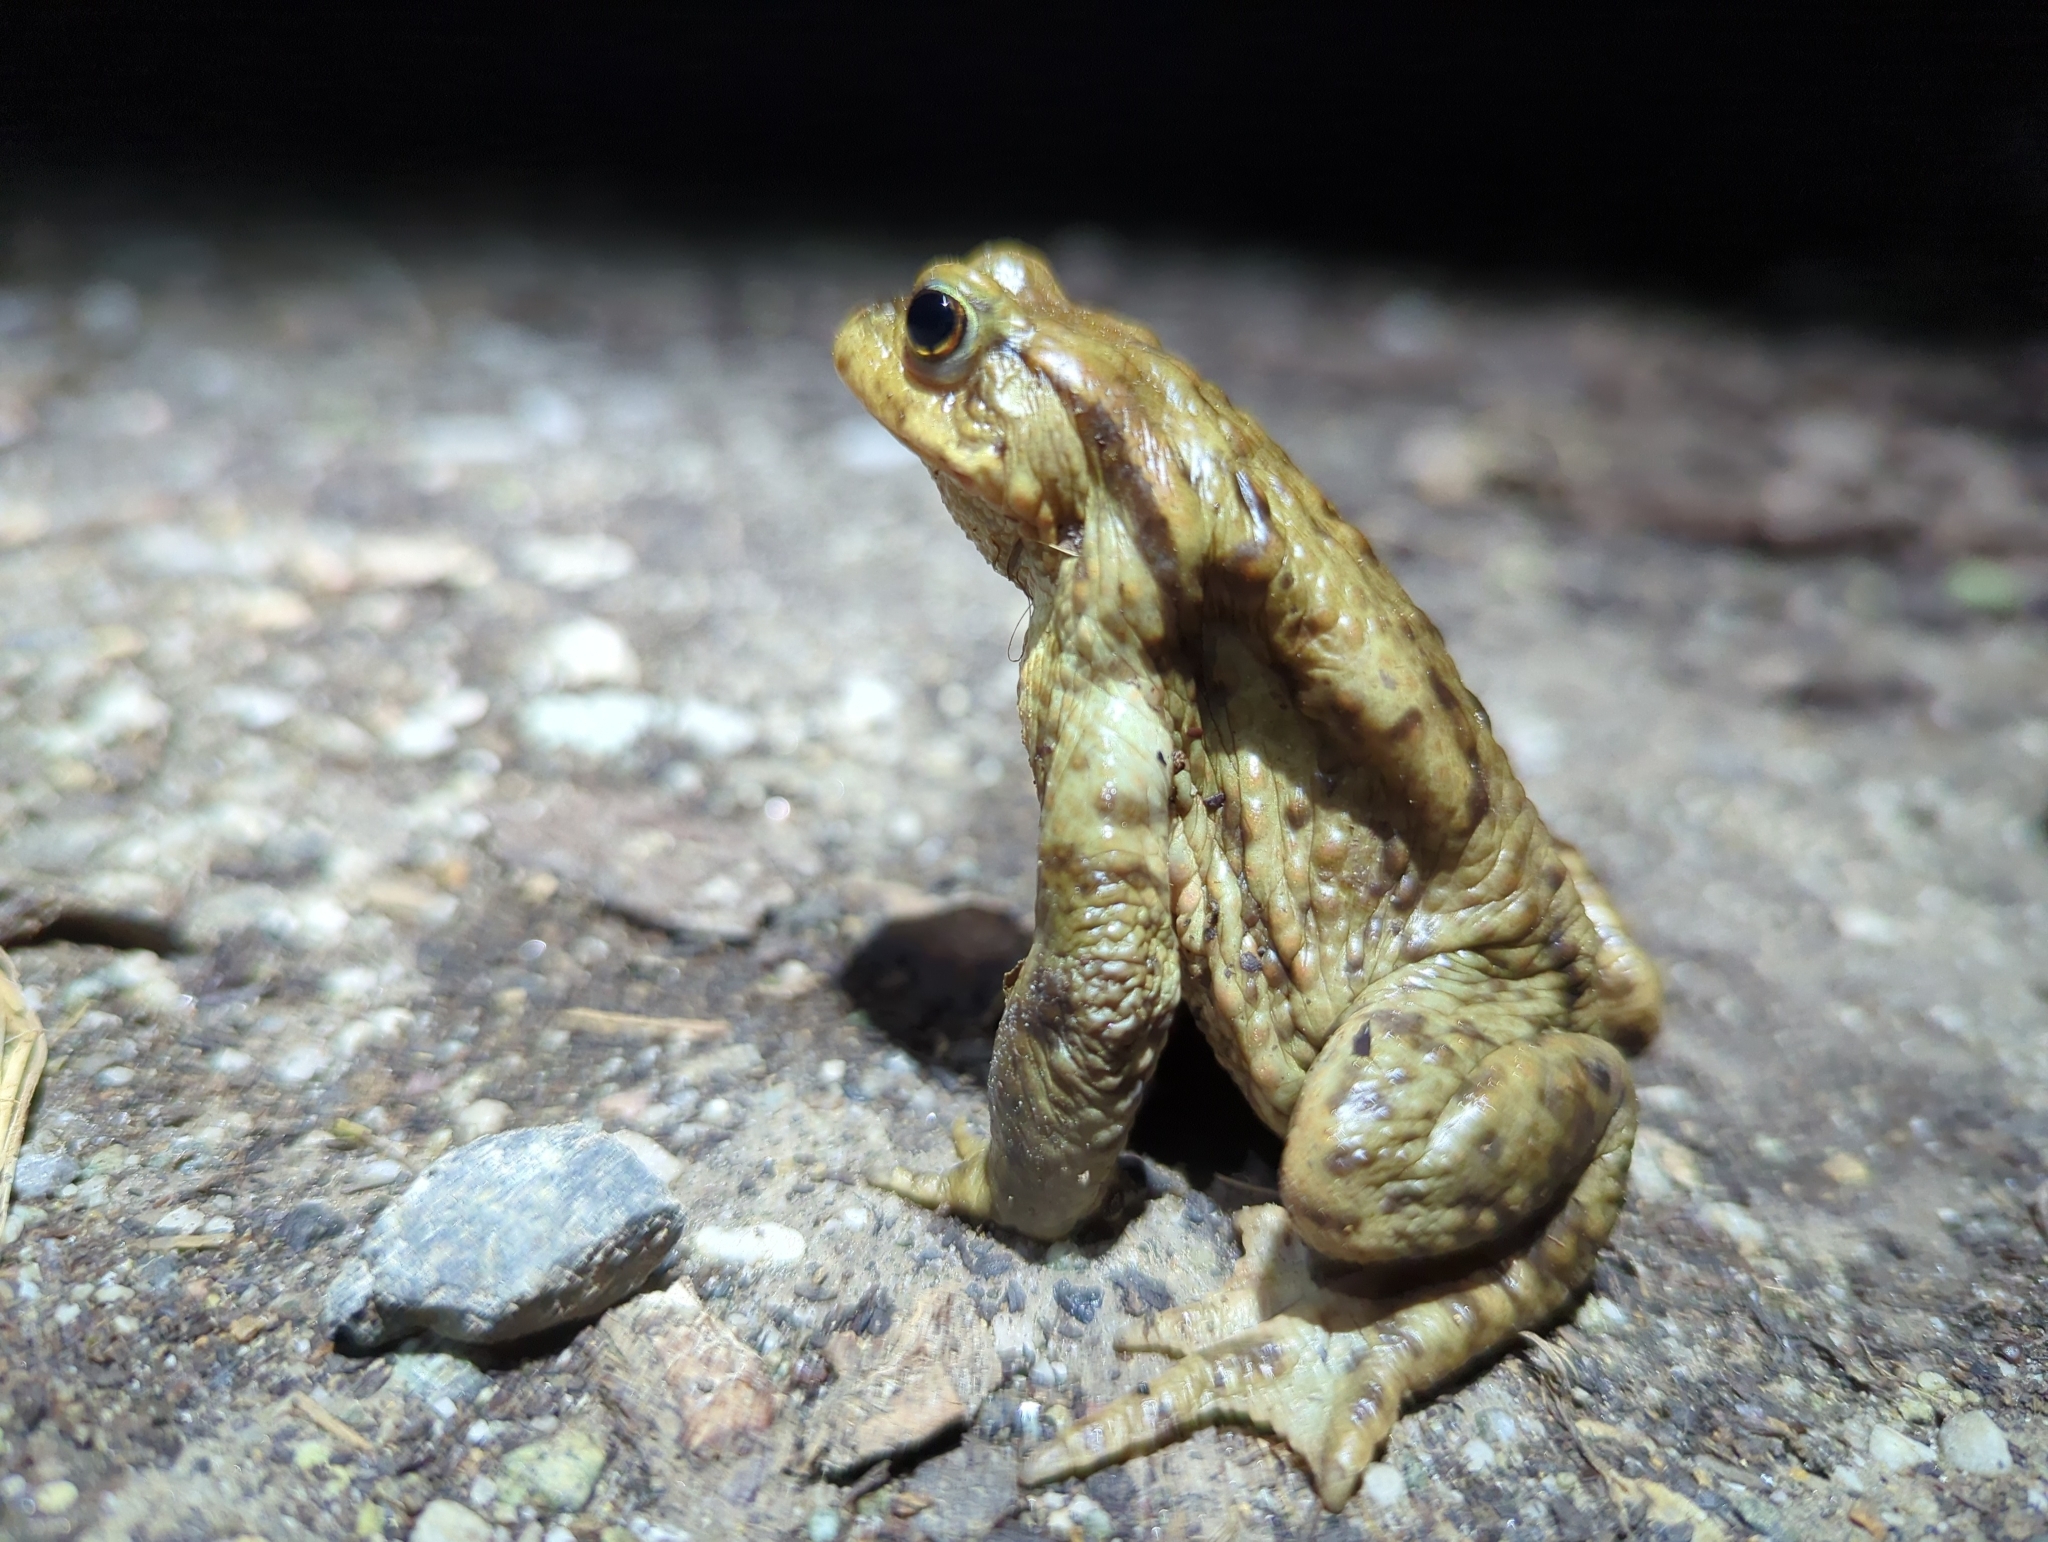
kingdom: Animalia
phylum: Chordata
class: Amphibia
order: Anura
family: Bufonidae
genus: Bufo
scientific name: Bufo bufo
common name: Common toad
